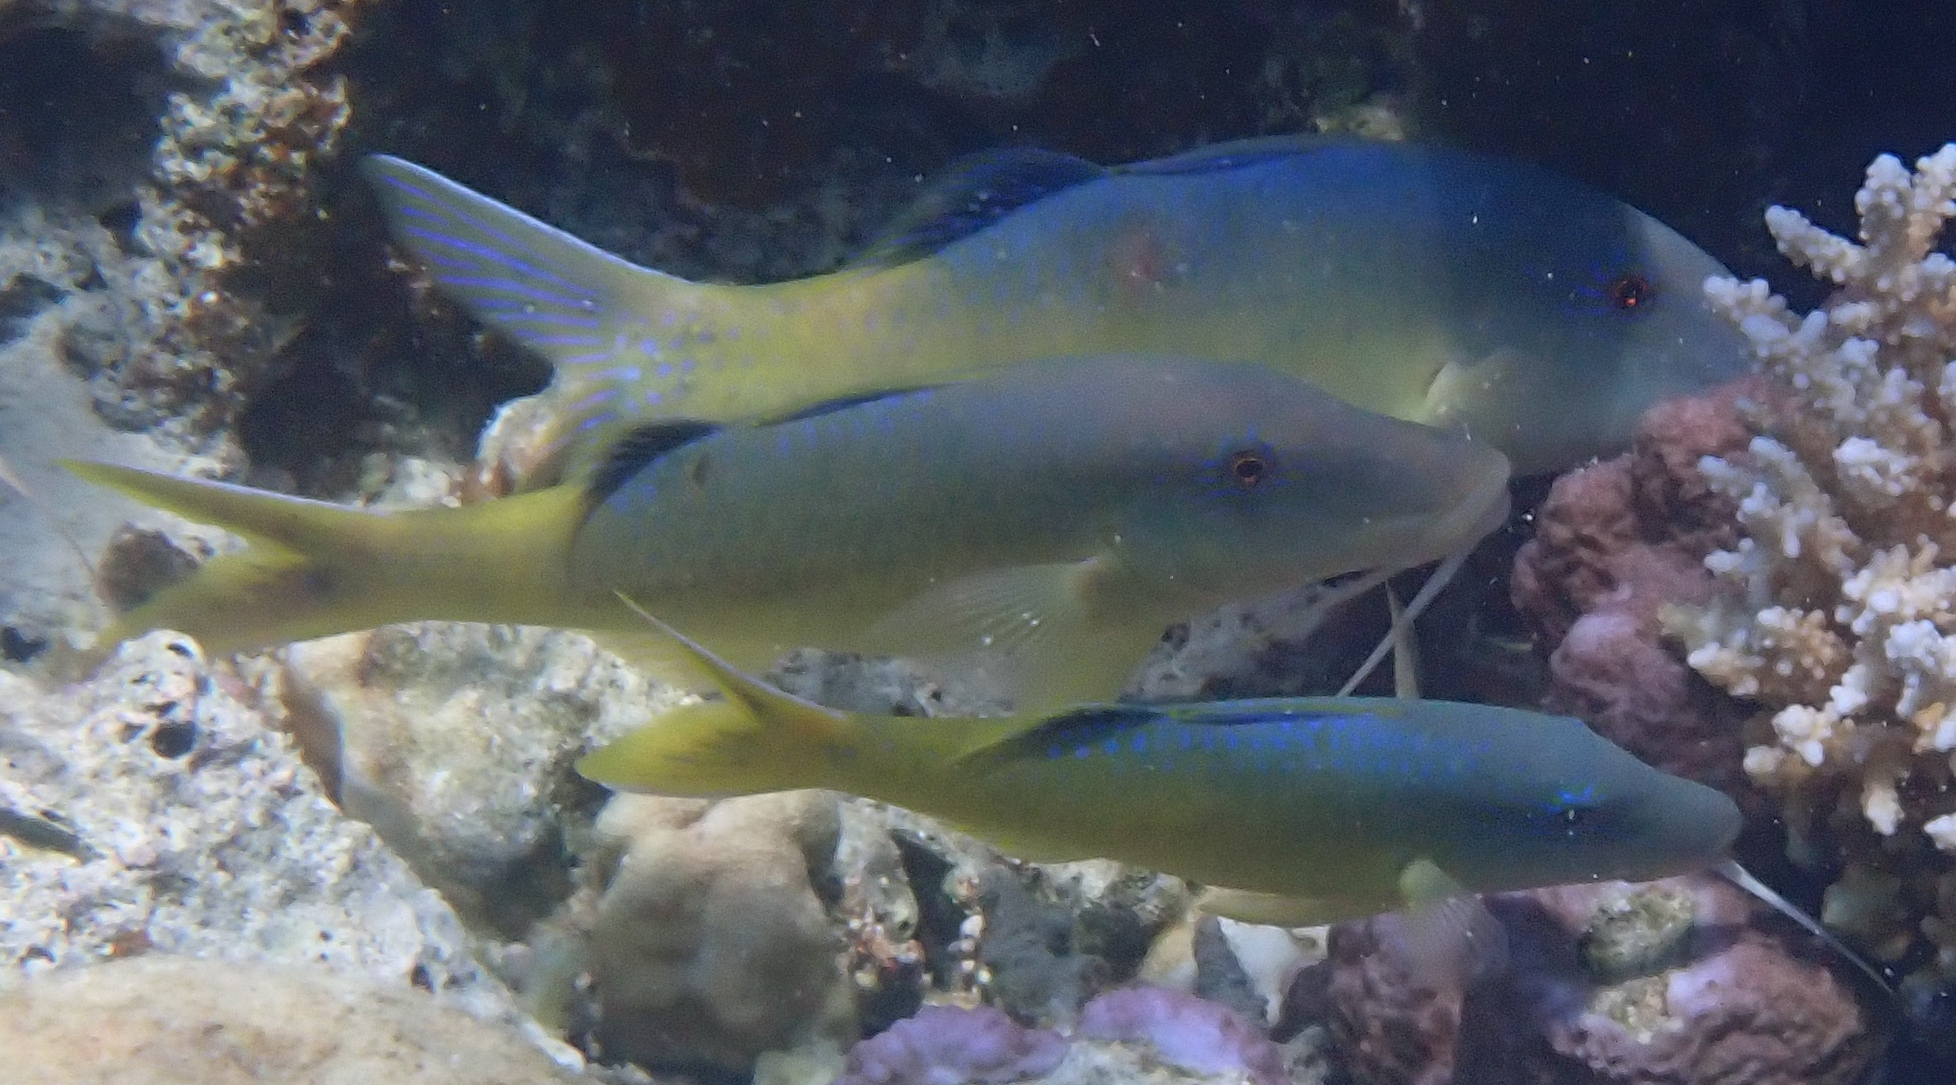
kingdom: Animalia
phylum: Chordata
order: Perciformes
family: Mullidae
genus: Parupeneus
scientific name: Parupeneus cyclostomus
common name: Goldsaddle goatfish
